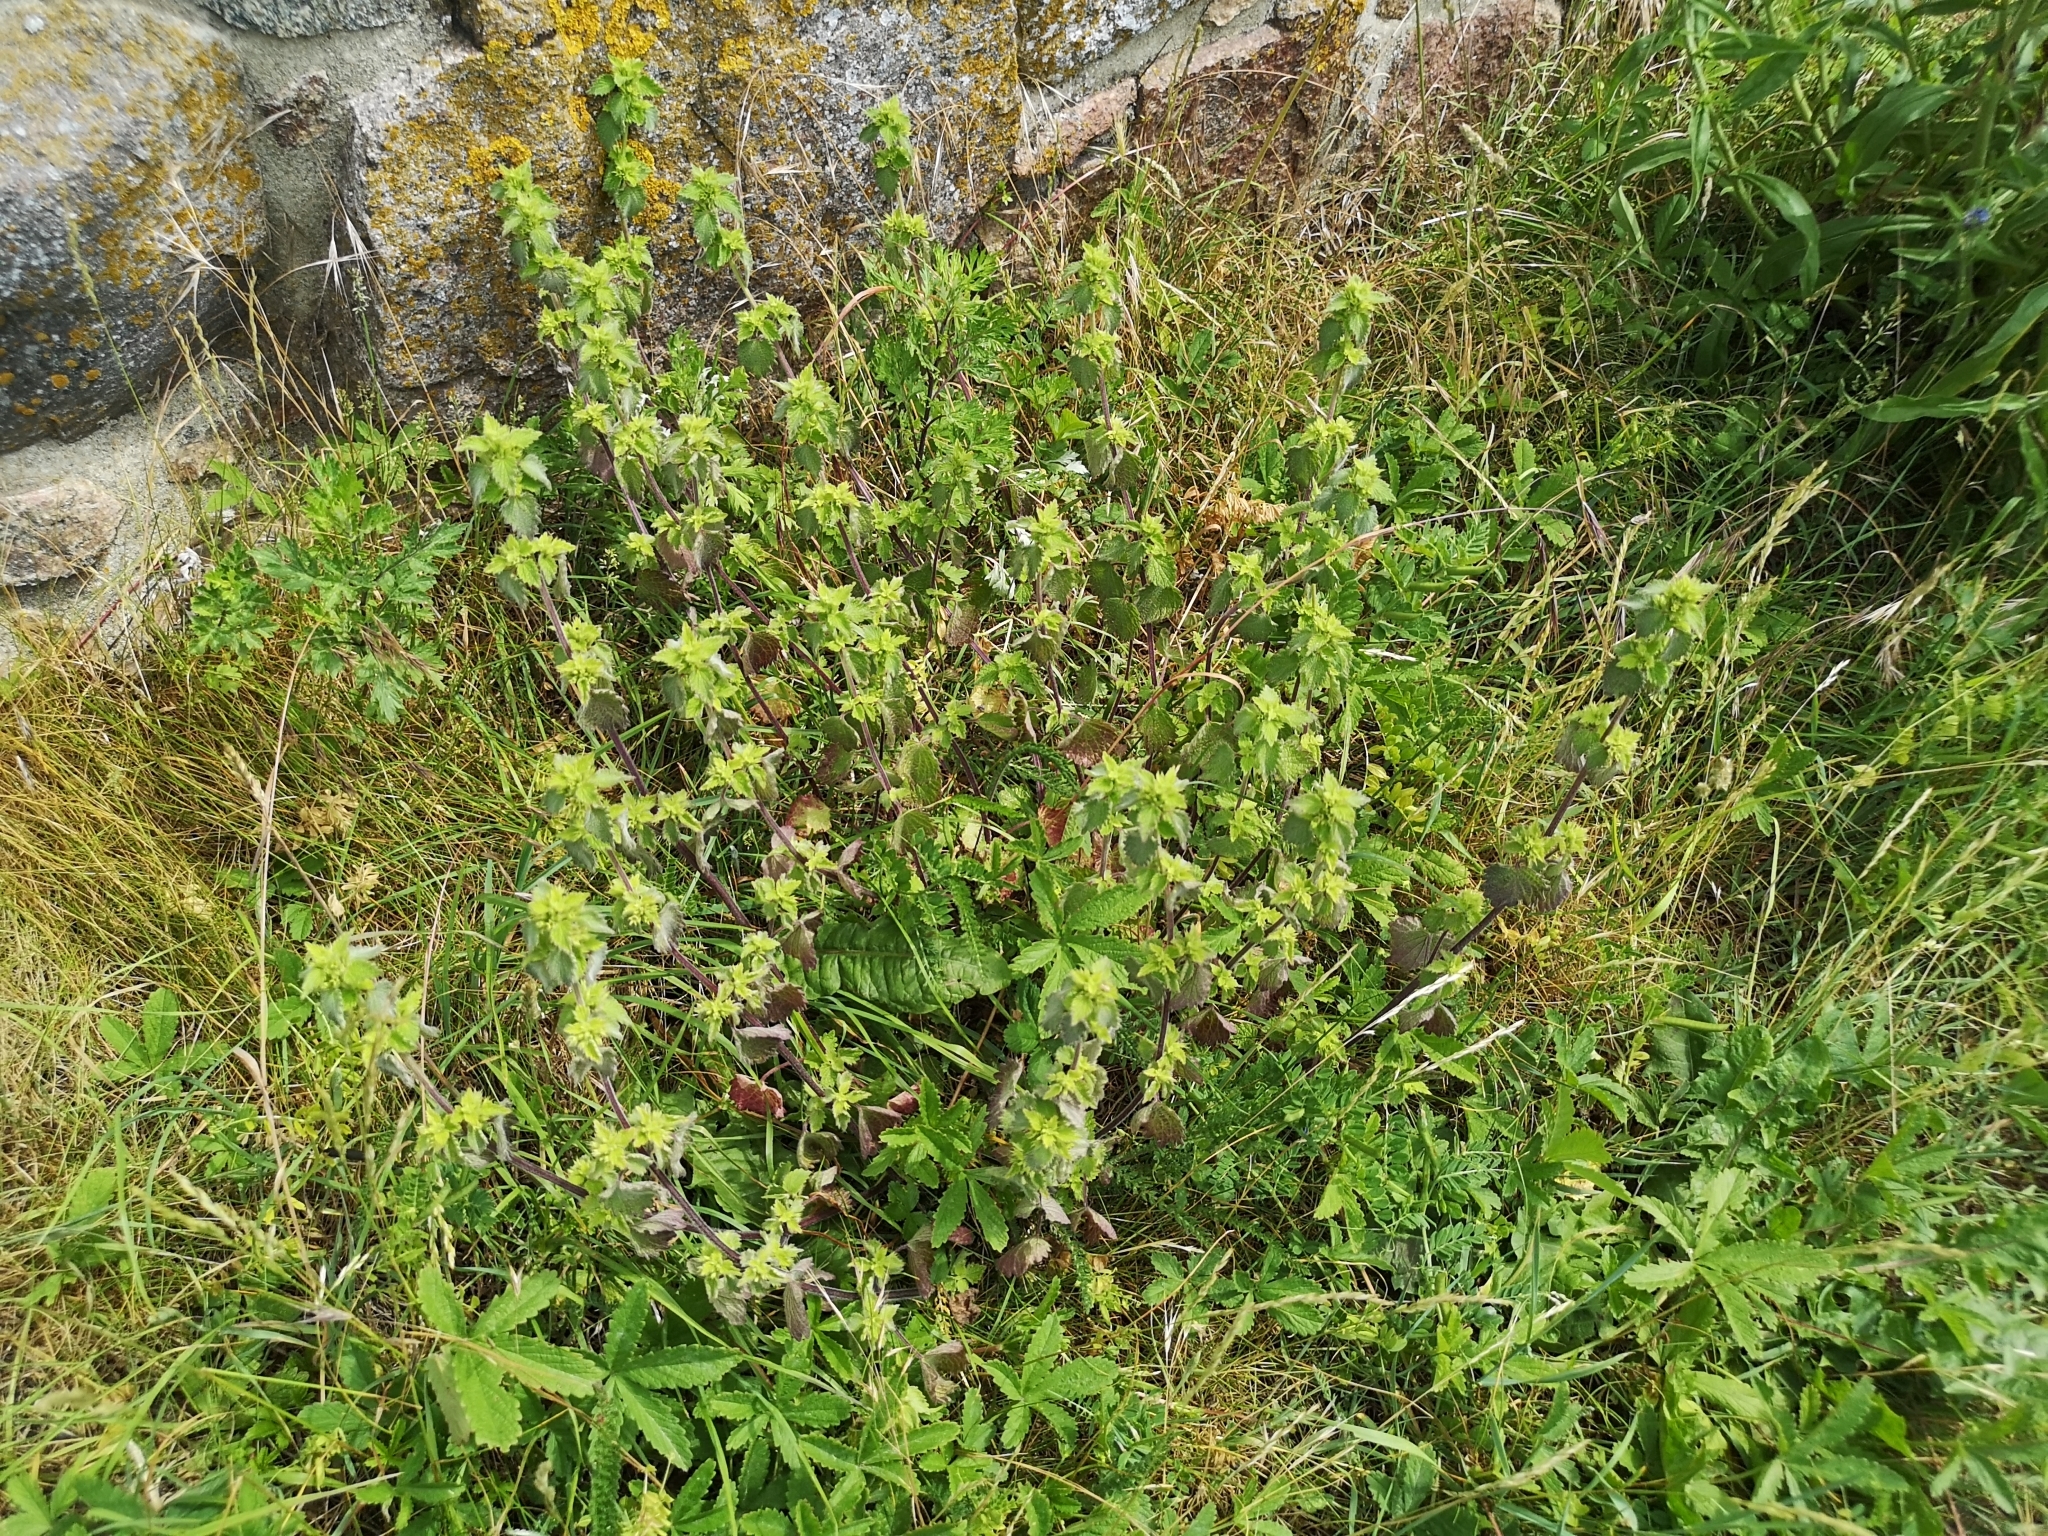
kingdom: Plantae
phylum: Tracheophyta
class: Magnoliopsida
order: Lamiales
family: Lamiaceae
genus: Ballota
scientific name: Ballota nigra
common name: Black horehound
